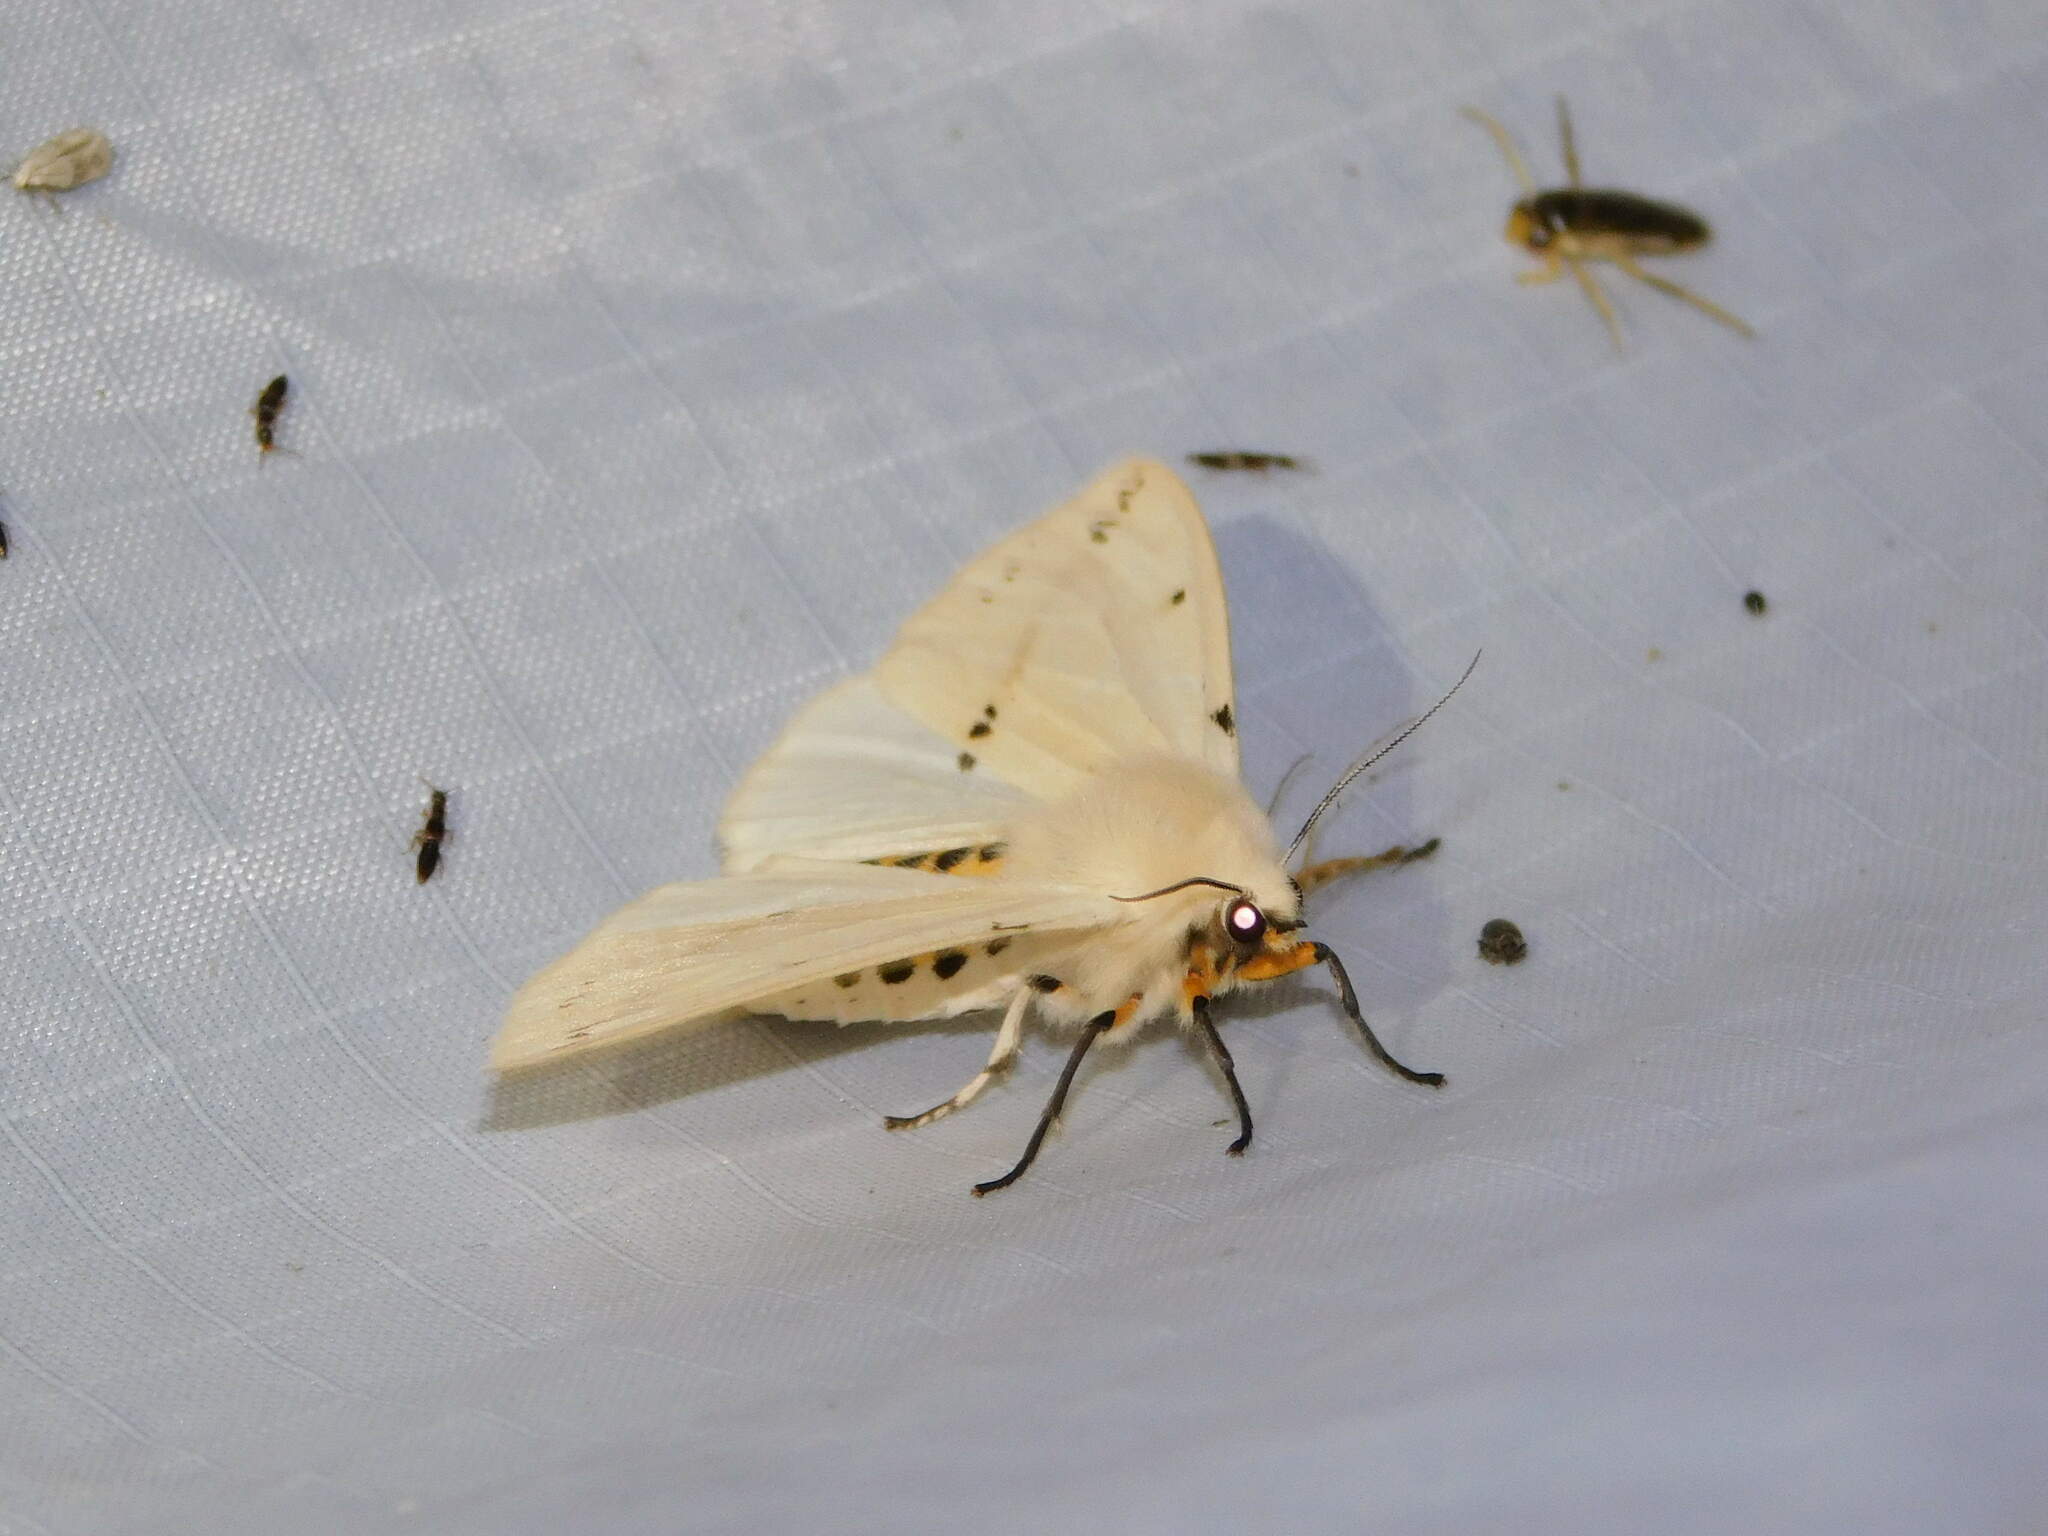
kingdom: Animalia
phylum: Arthropoda
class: Insecta
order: Lepidoptera
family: Erebidae
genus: Spilarctia
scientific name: Spilarctia lutea
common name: Buff ermine
